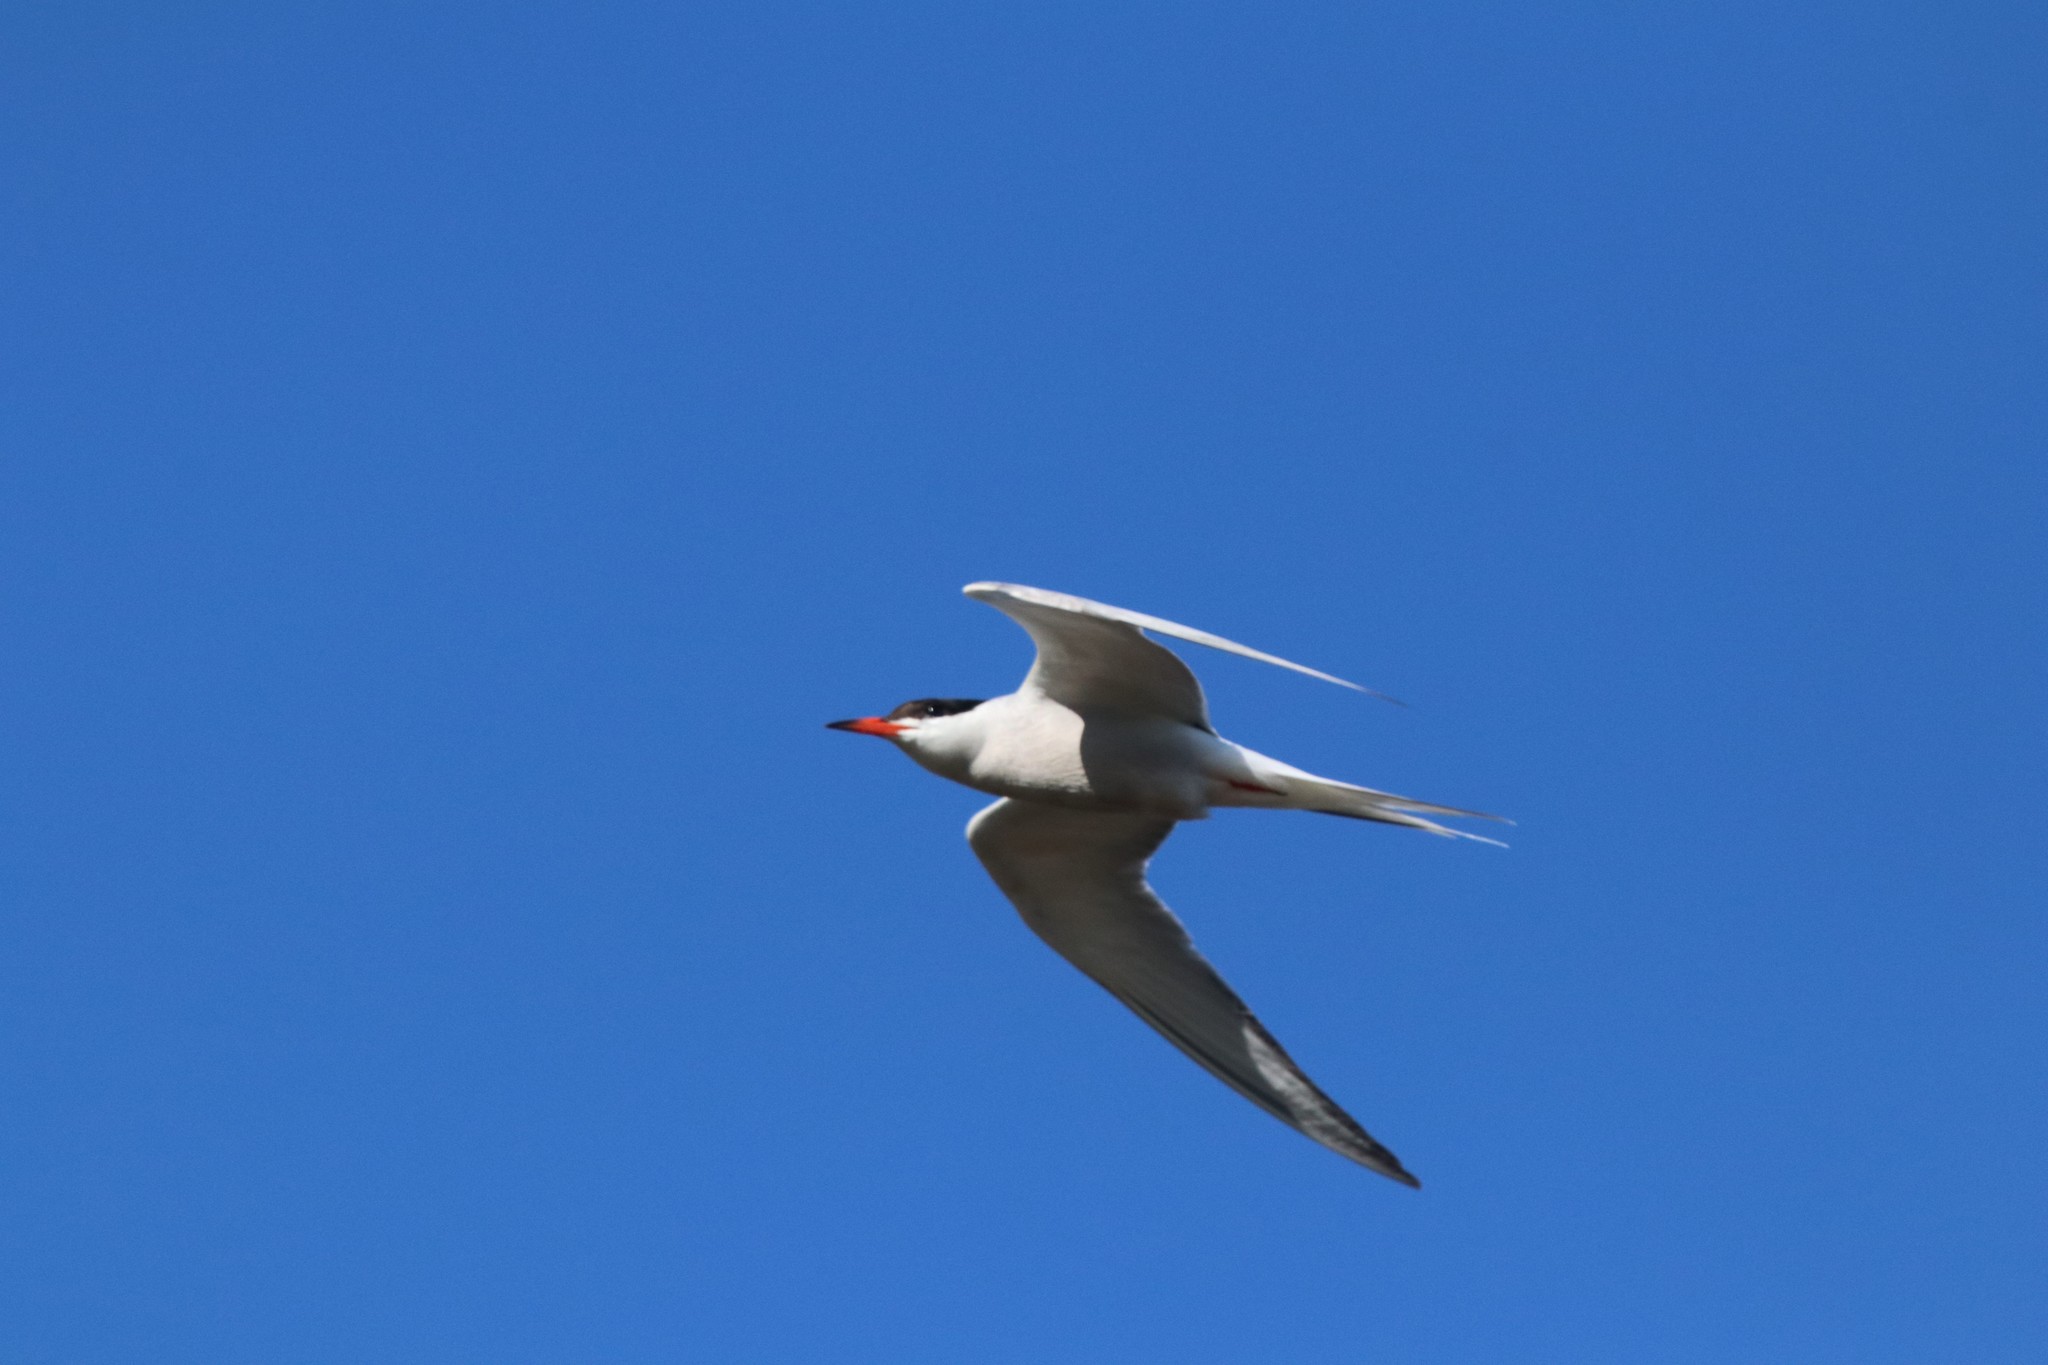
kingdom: Animalia
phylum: Chordata
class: Aves
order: Charadriiformes
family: Laridae
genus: Sterna
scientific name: Sterna hirundo
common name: Common tern
